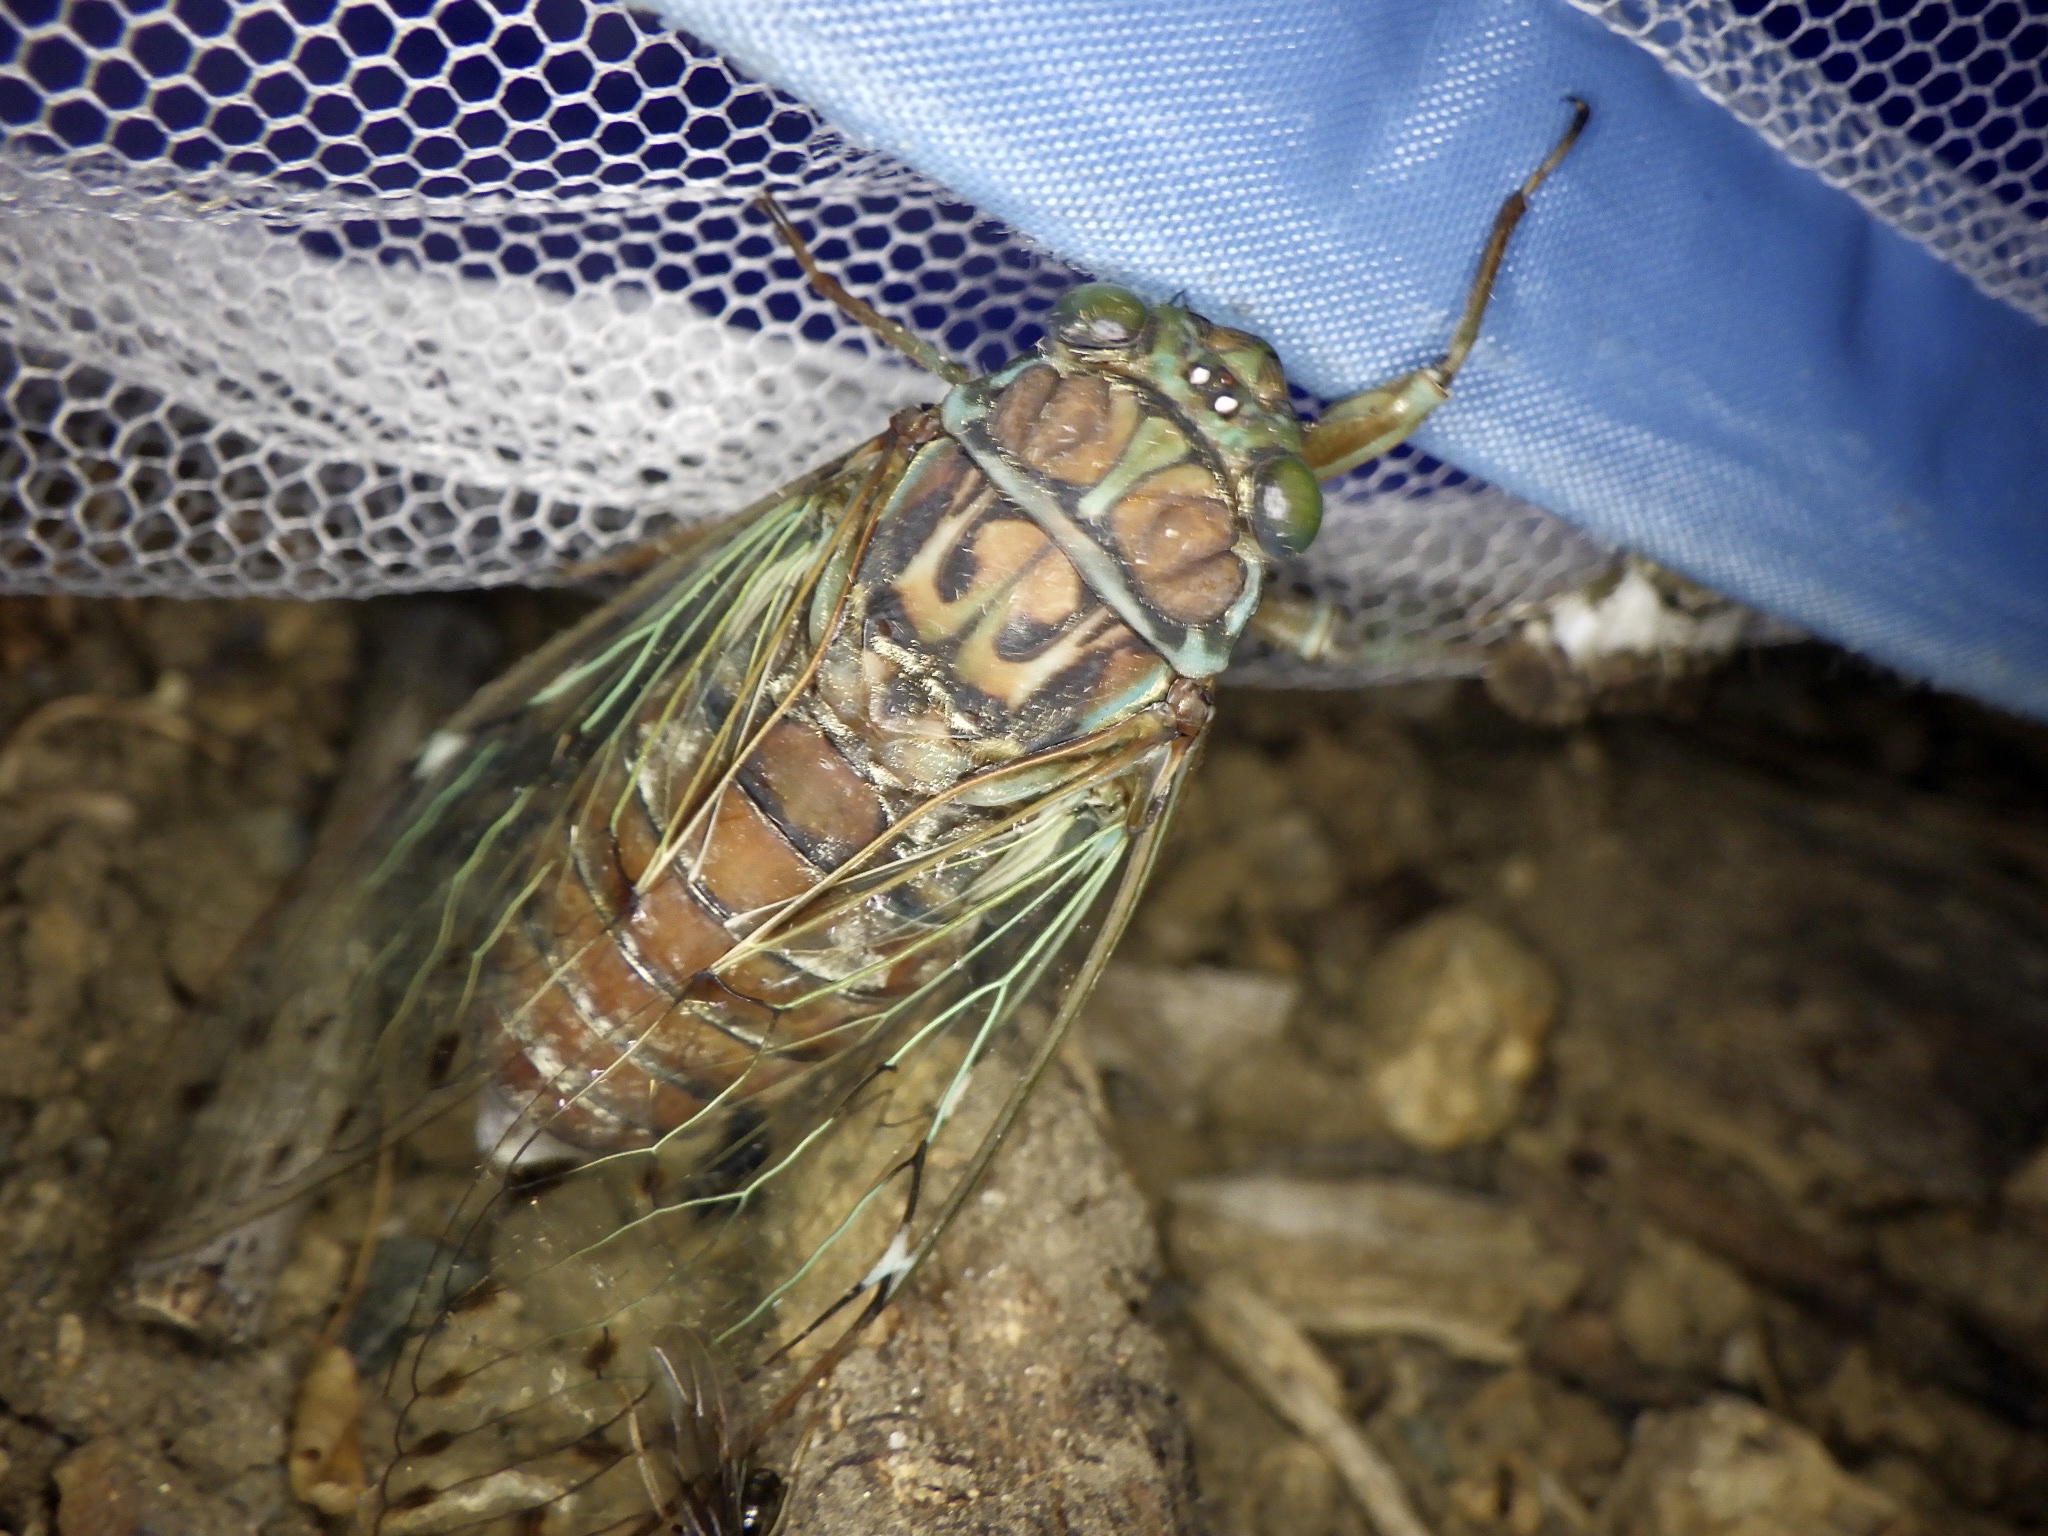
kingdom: Animalia
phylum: Arthropoda
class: Insecta
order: Hemiptera
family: Cicadidae
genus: Tanna
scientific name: Tanna japonensis
